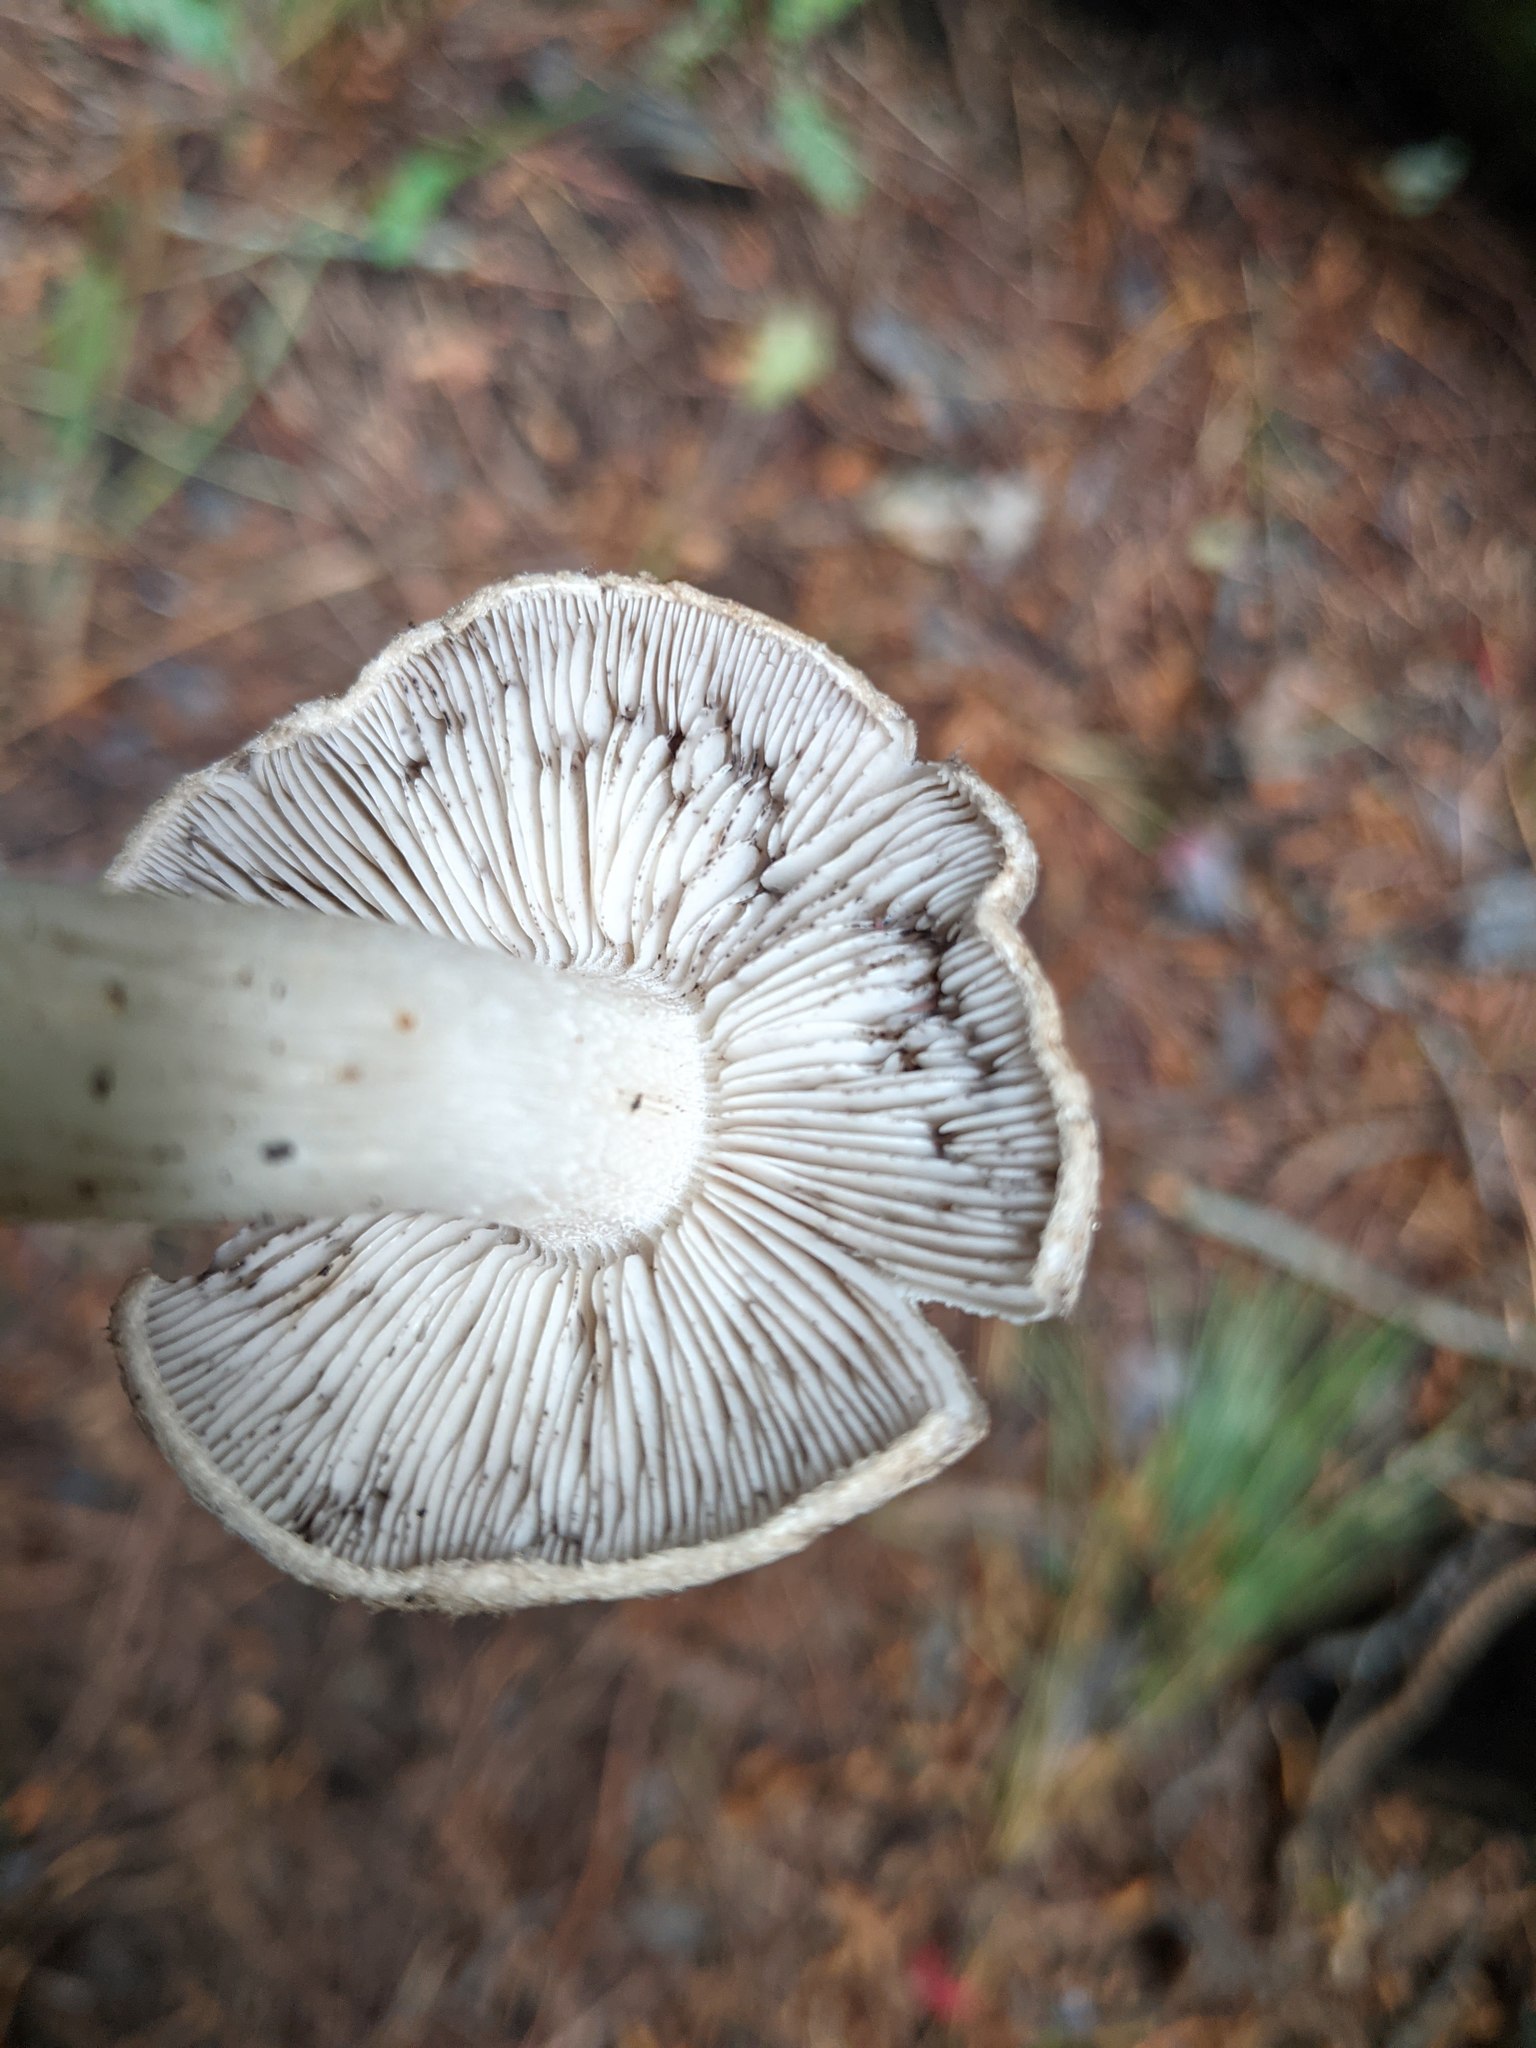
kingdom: Fungi
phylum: Basidiomycota
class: Agaricomycetes
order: Agaricales
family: Tricholomataceae
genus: Tricholoma
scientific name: Tricholoma terreum
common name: Grey knight
